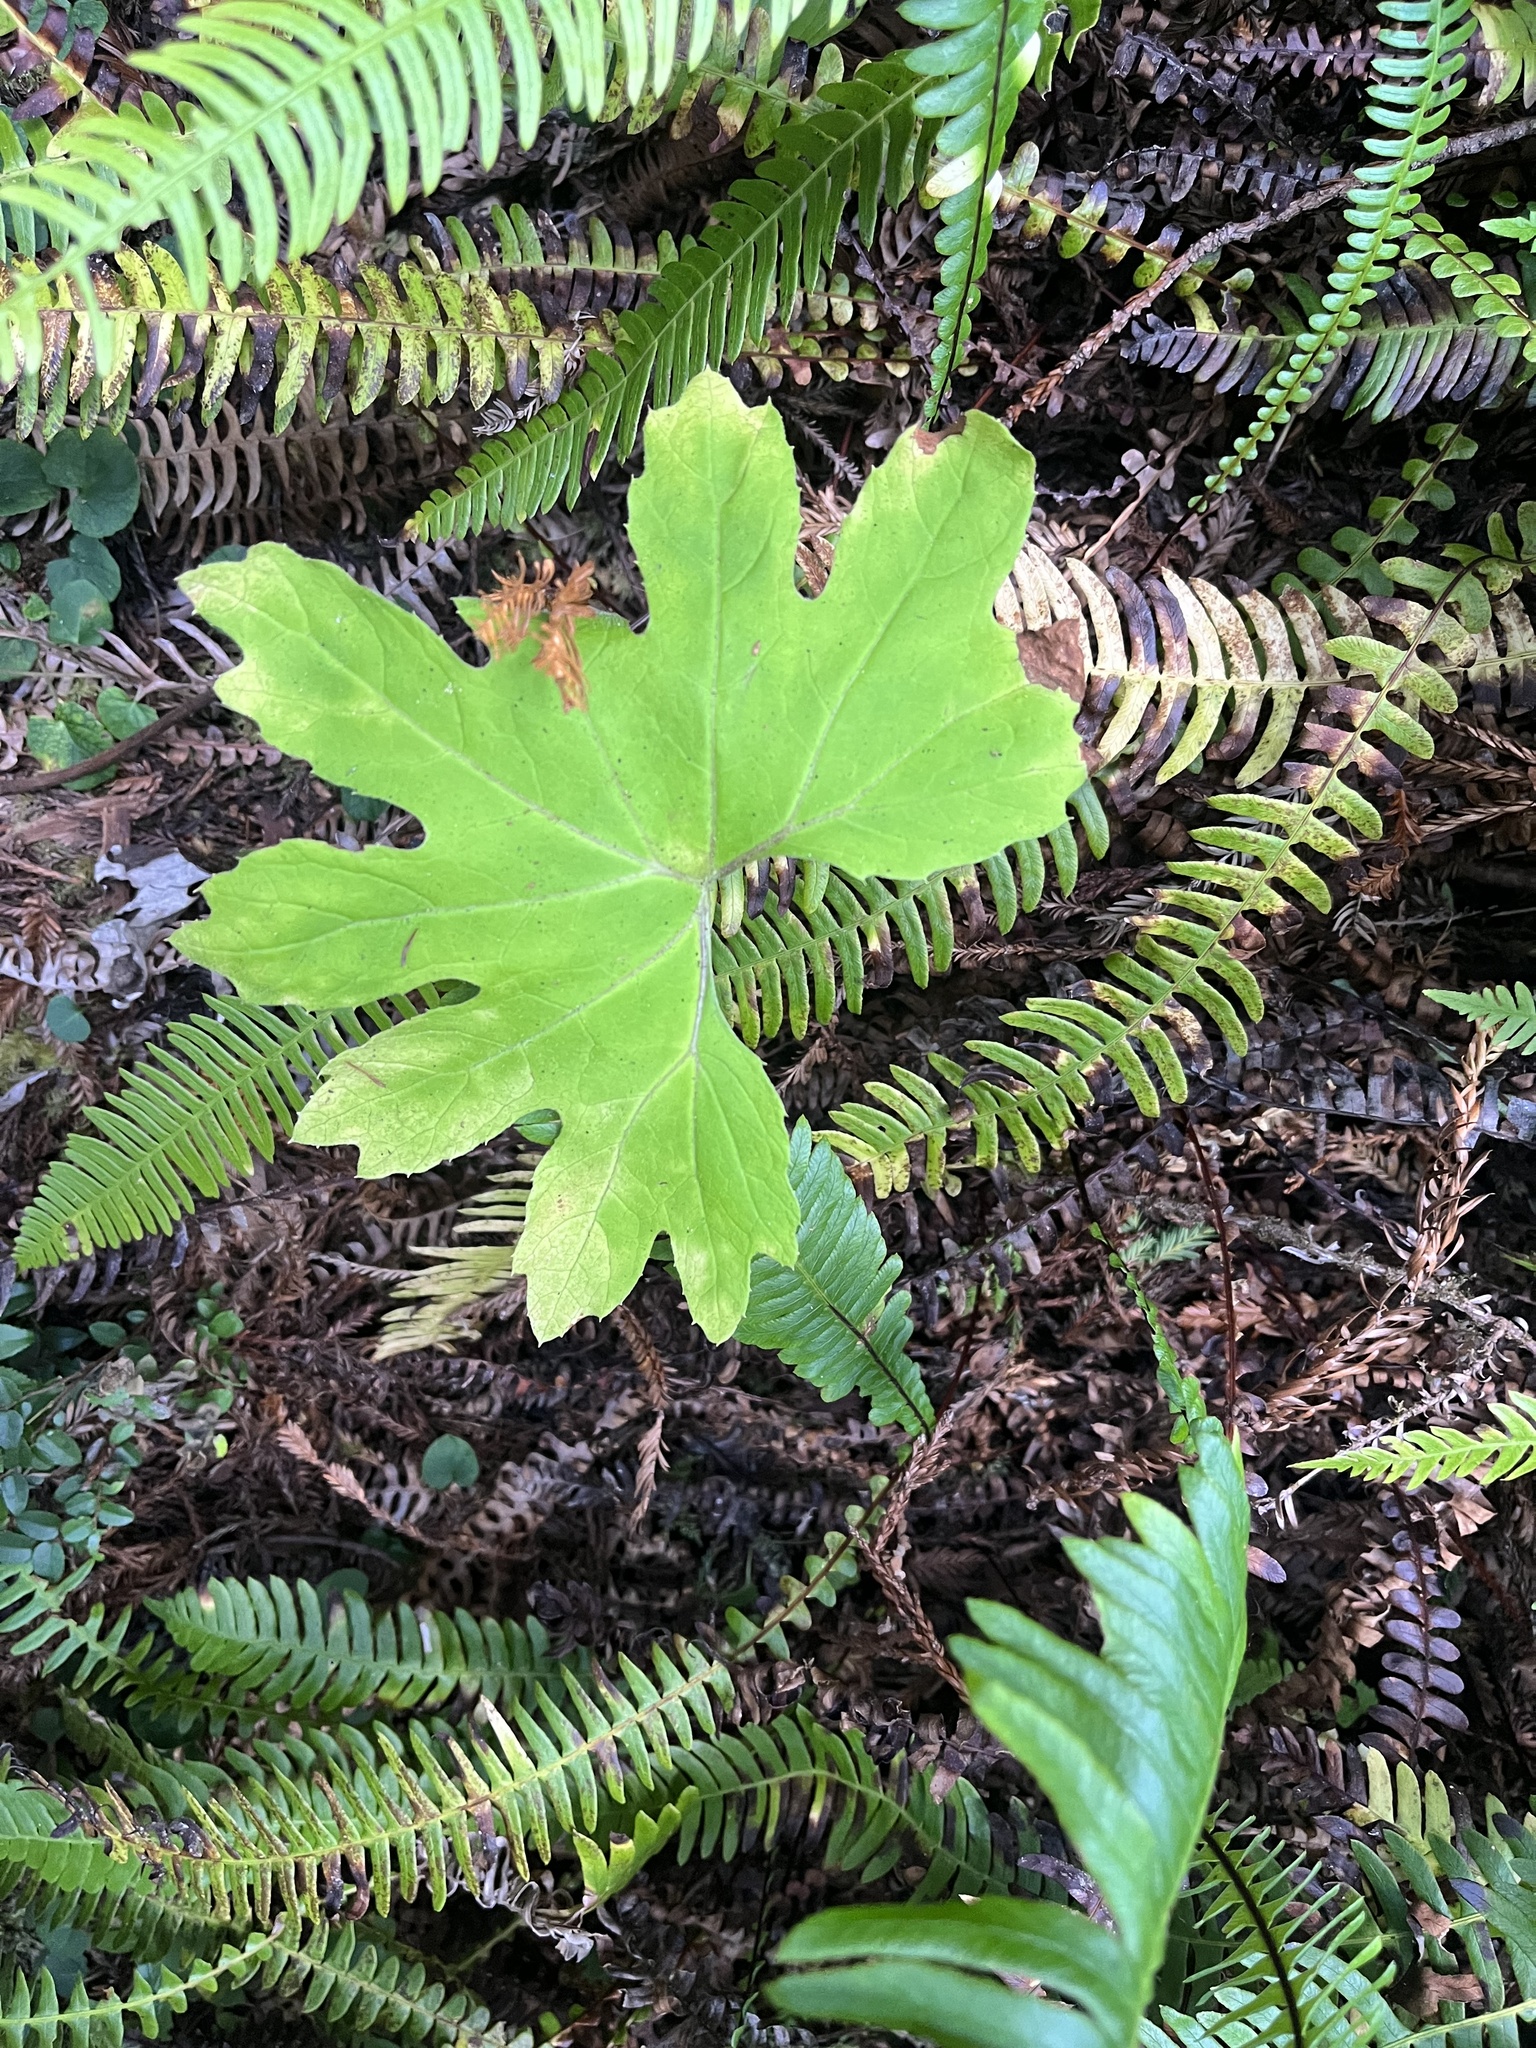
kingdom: Plantae
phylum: Tracheophyta
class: Magnoliopsida
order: Asterales
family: Asteraceae
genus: Petasites
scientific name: Petasites frigidus
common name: Arctic butterbur
